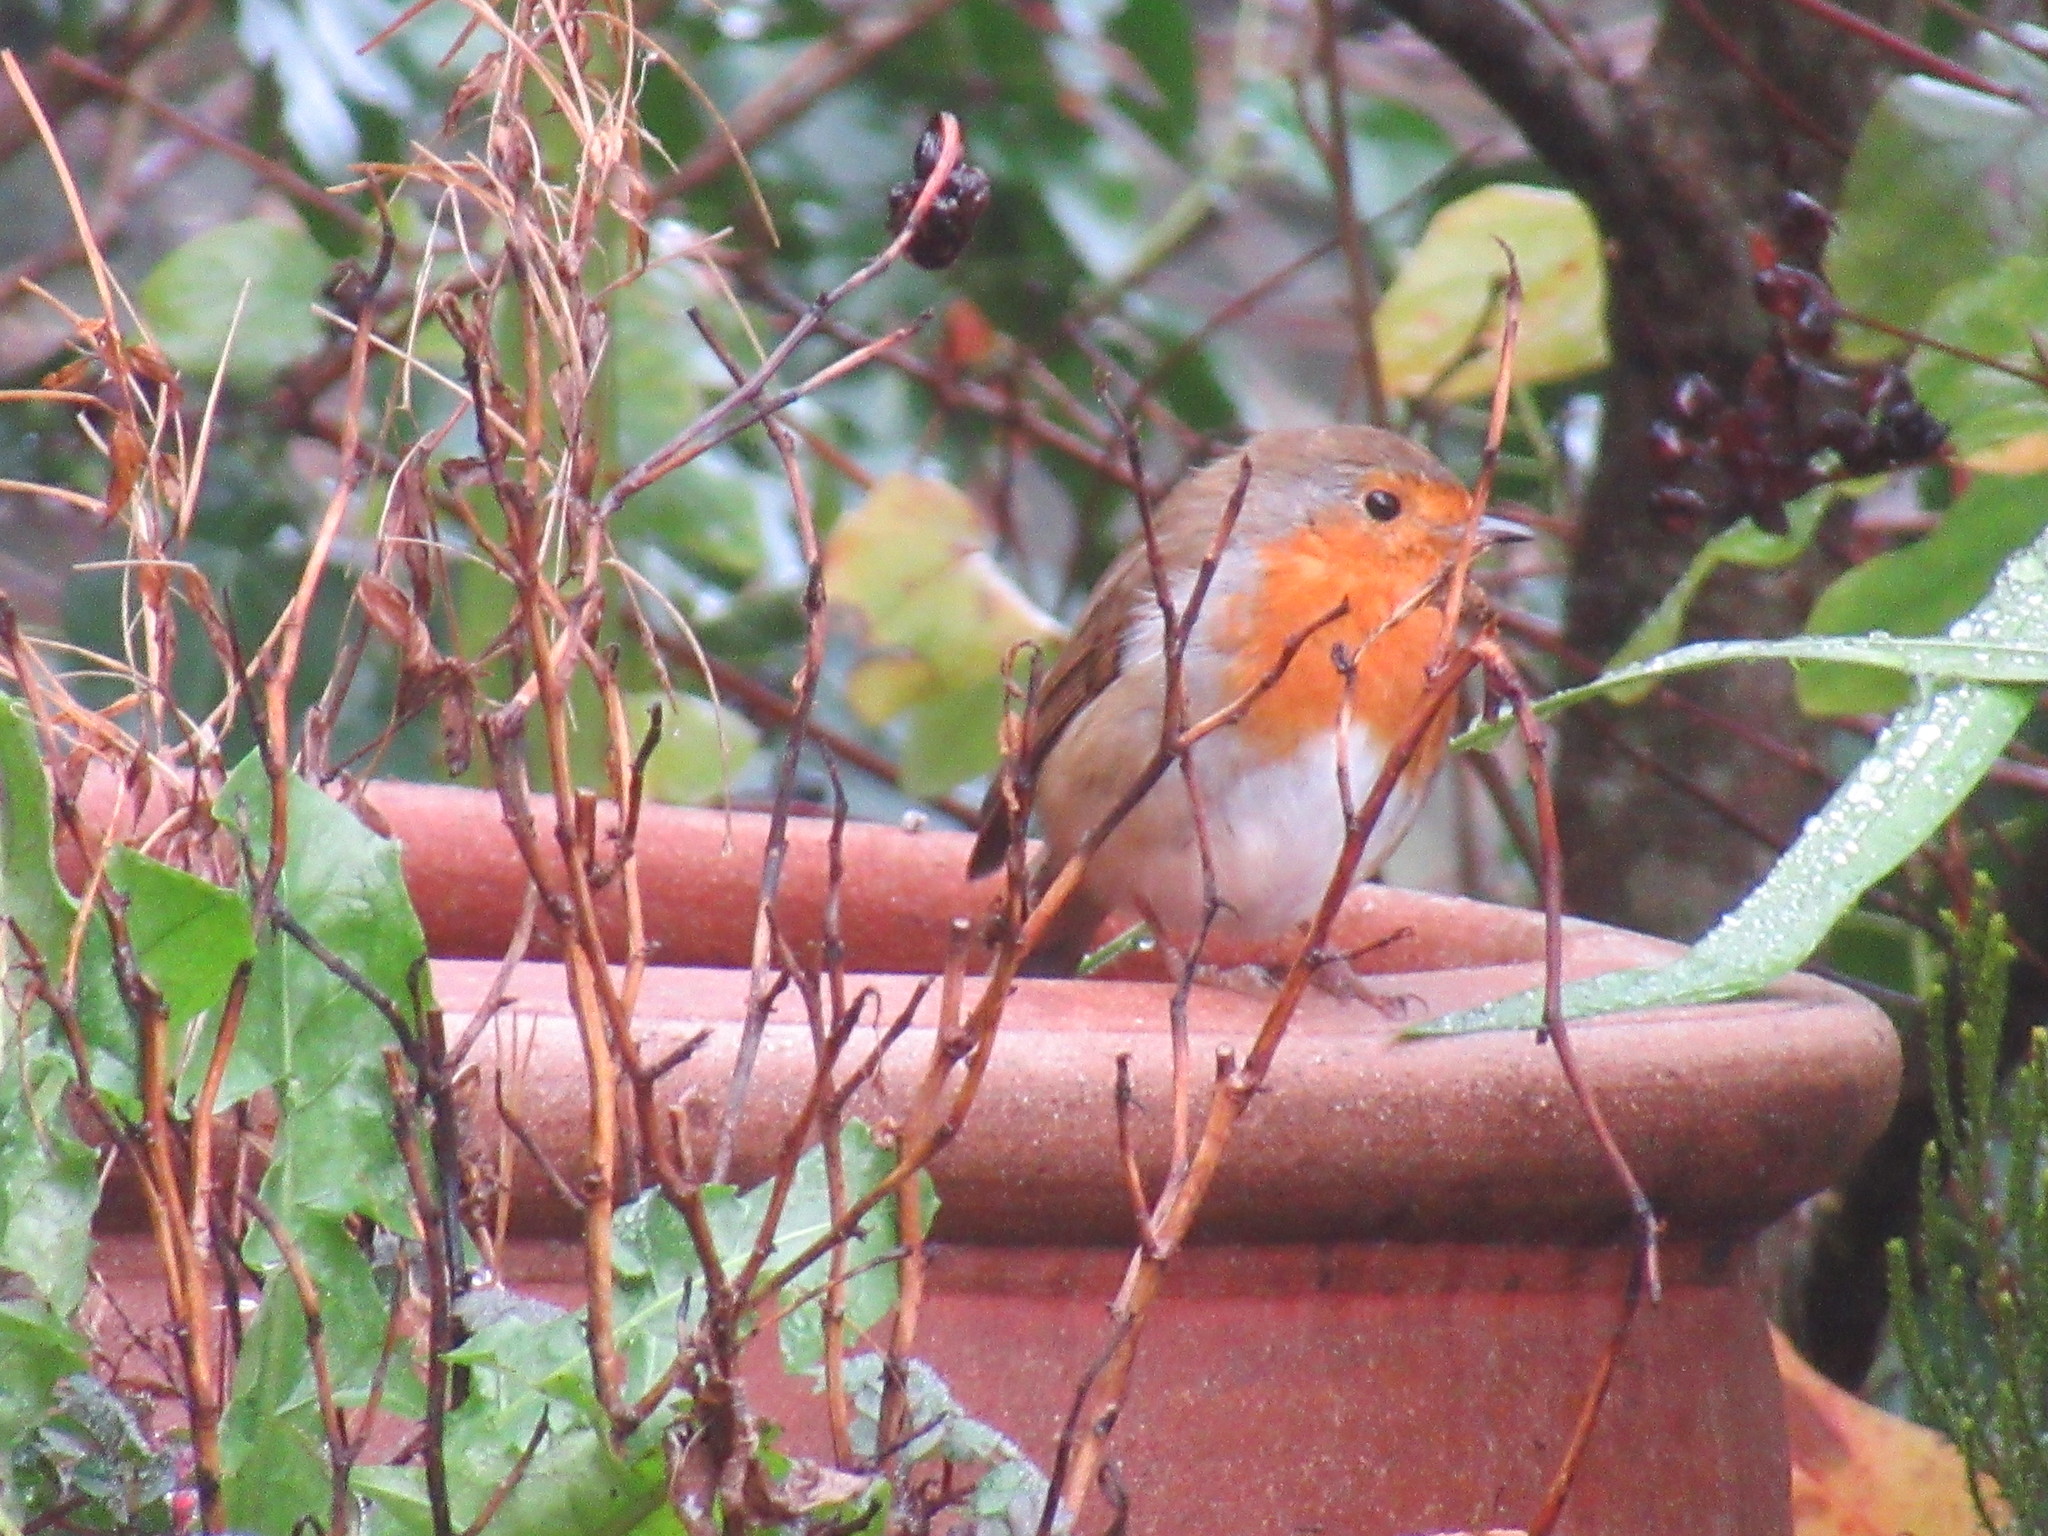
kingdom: Animalia
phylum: Chordata
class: Aves
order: Passeriformes
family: Muscicapidae
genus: Erithacus
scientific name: Erithacus rubecula
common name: European robin
